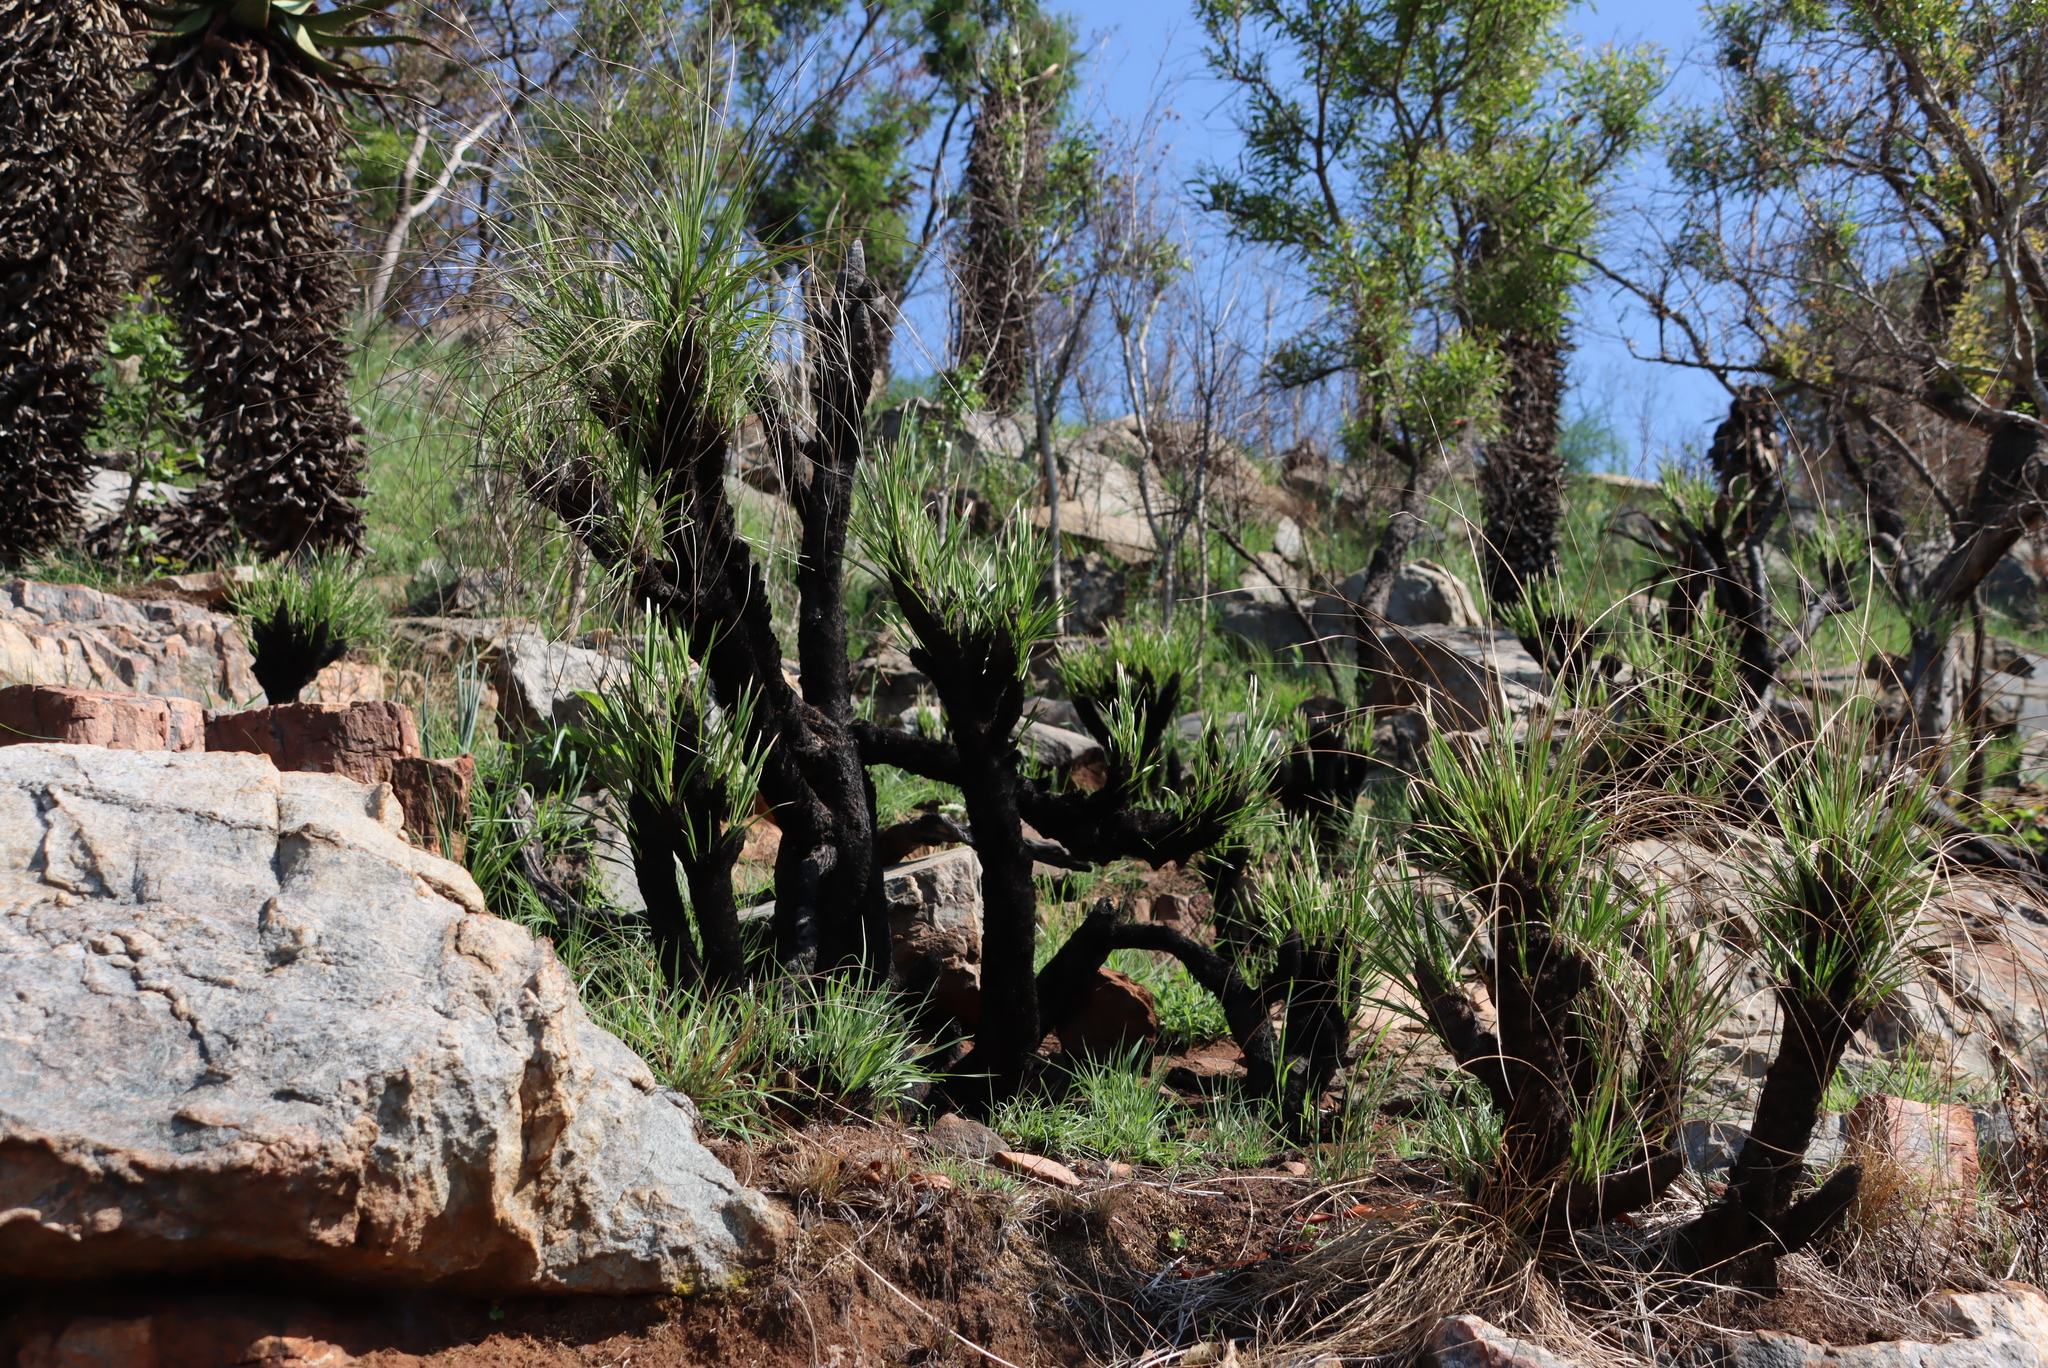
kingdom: Plantae
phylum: Tracheophyta
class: Liliopsida
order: Pandanales
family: Velloziaceae
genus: Xerophyta
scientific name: Xerophyta retinervis
